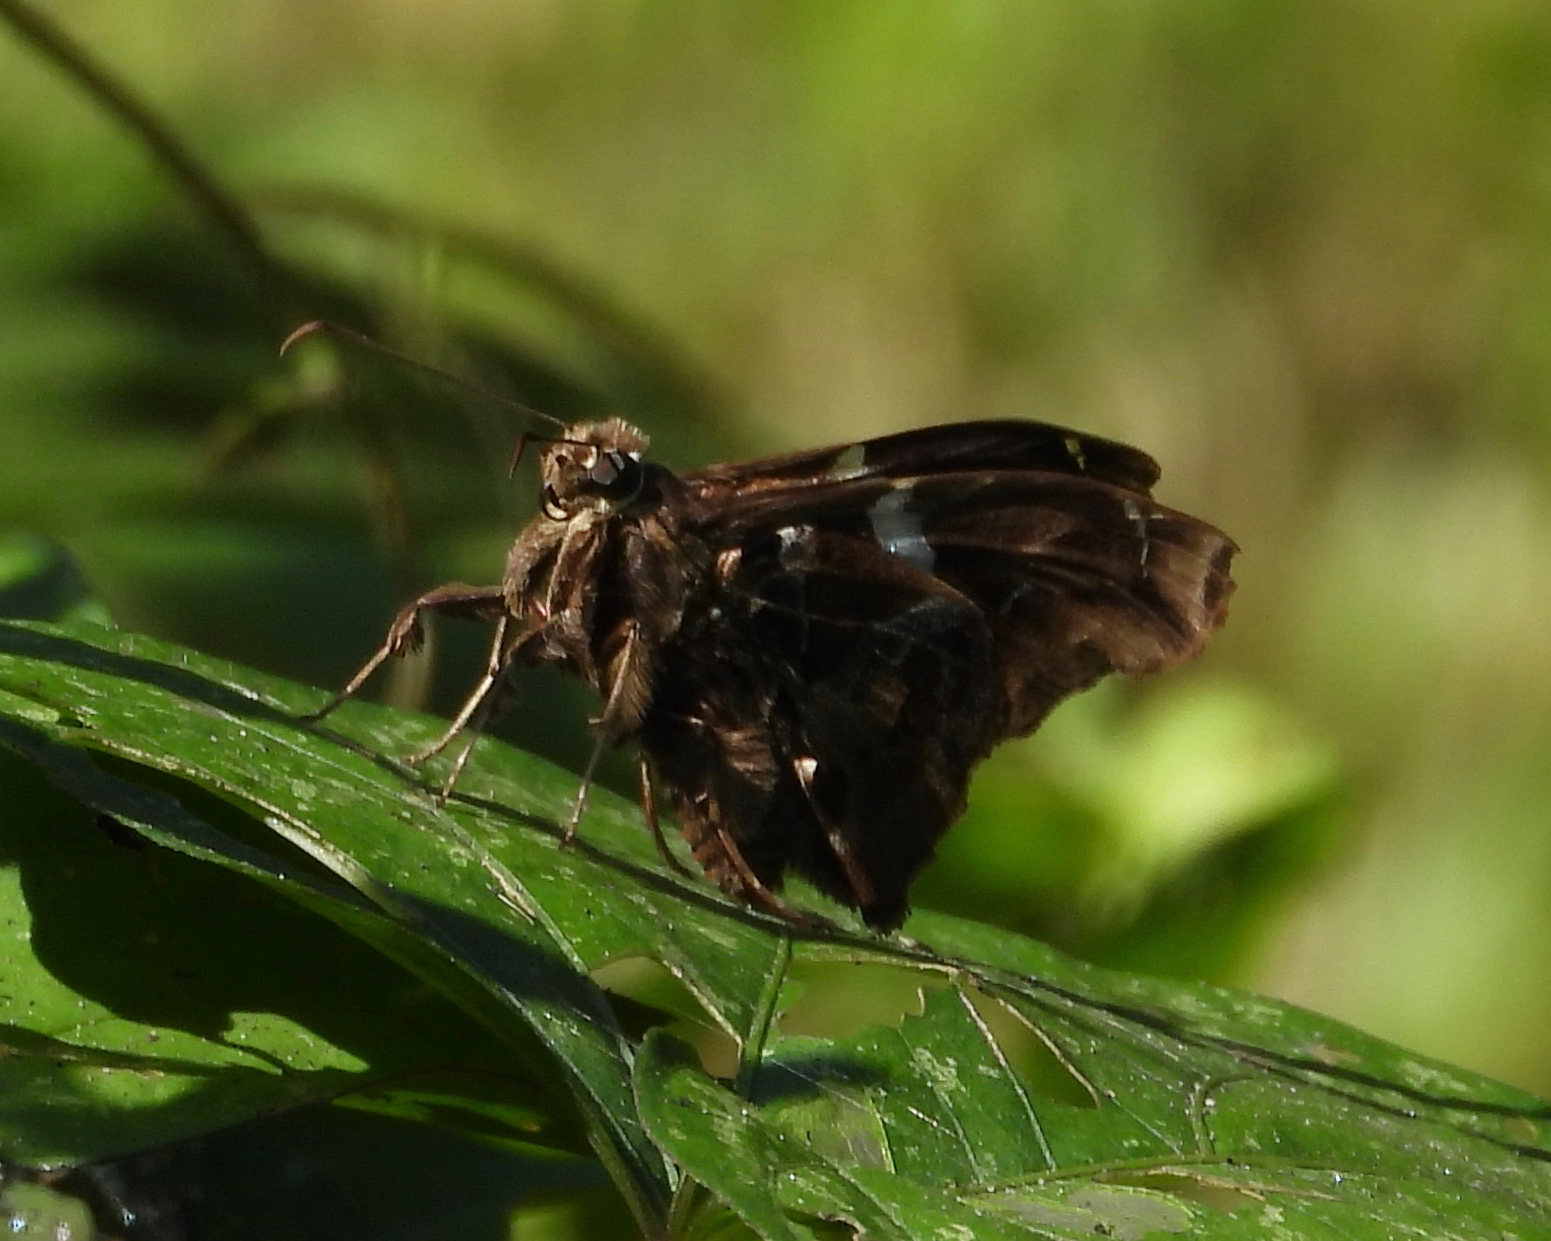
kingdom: Animalia
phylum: Arthropoda
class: Insecta
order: Lepidoptera
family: Hesperiidae
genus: Spathilepia
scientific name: Spathilepia clonius
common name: Falcate skipper
